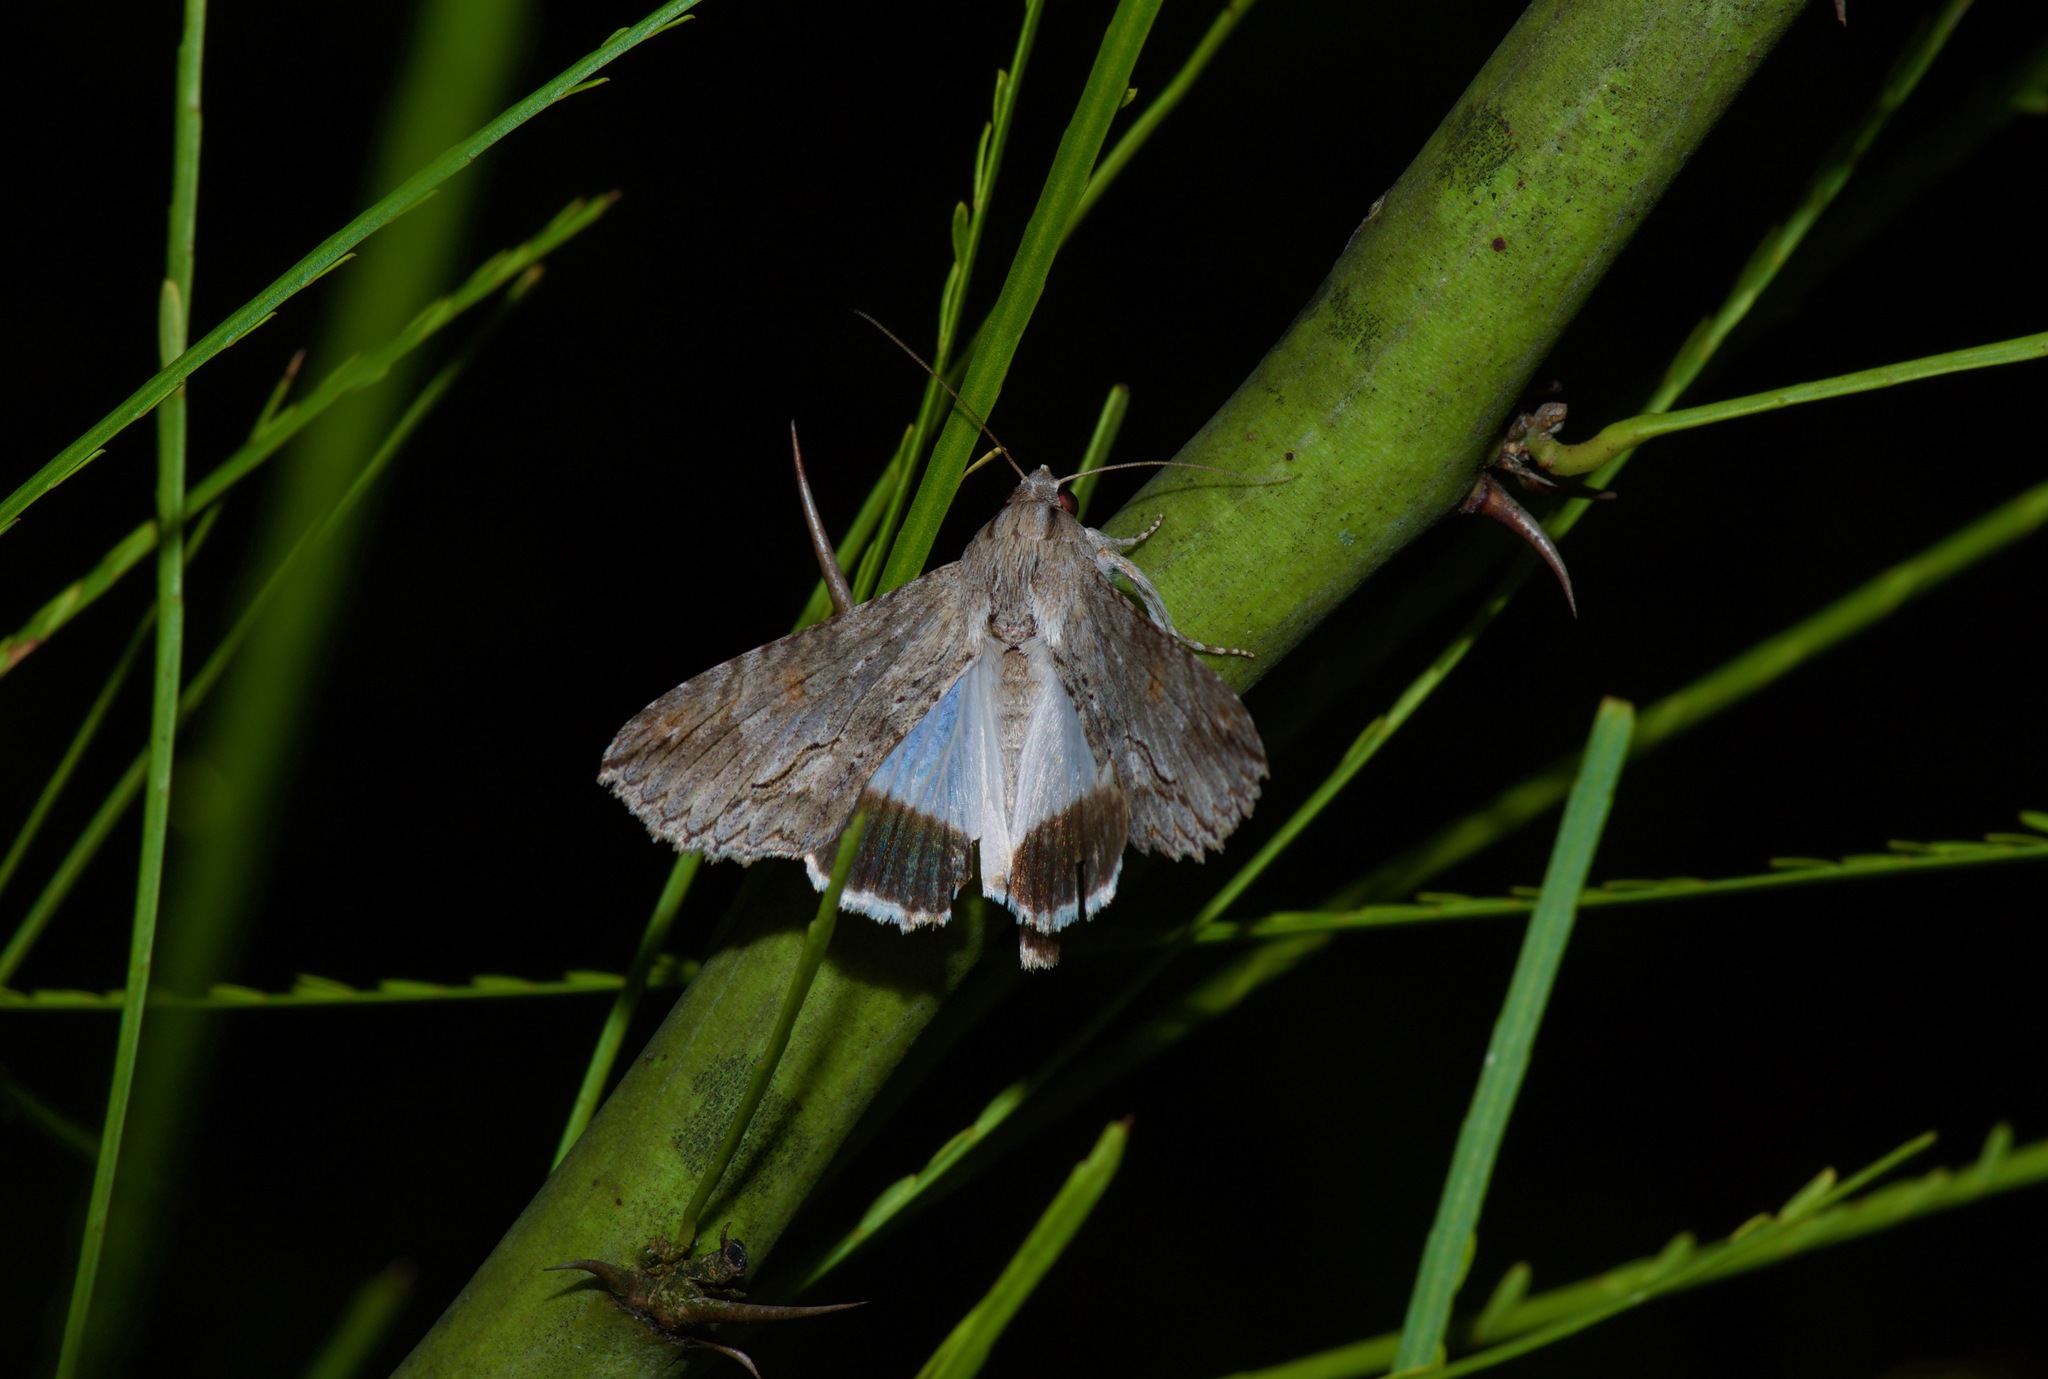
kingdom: Animalia
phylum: Arthropoda
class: Insecta
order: Lepidoptera
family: Erebidae
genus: Melipotis
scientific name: Melipotis acontioides
